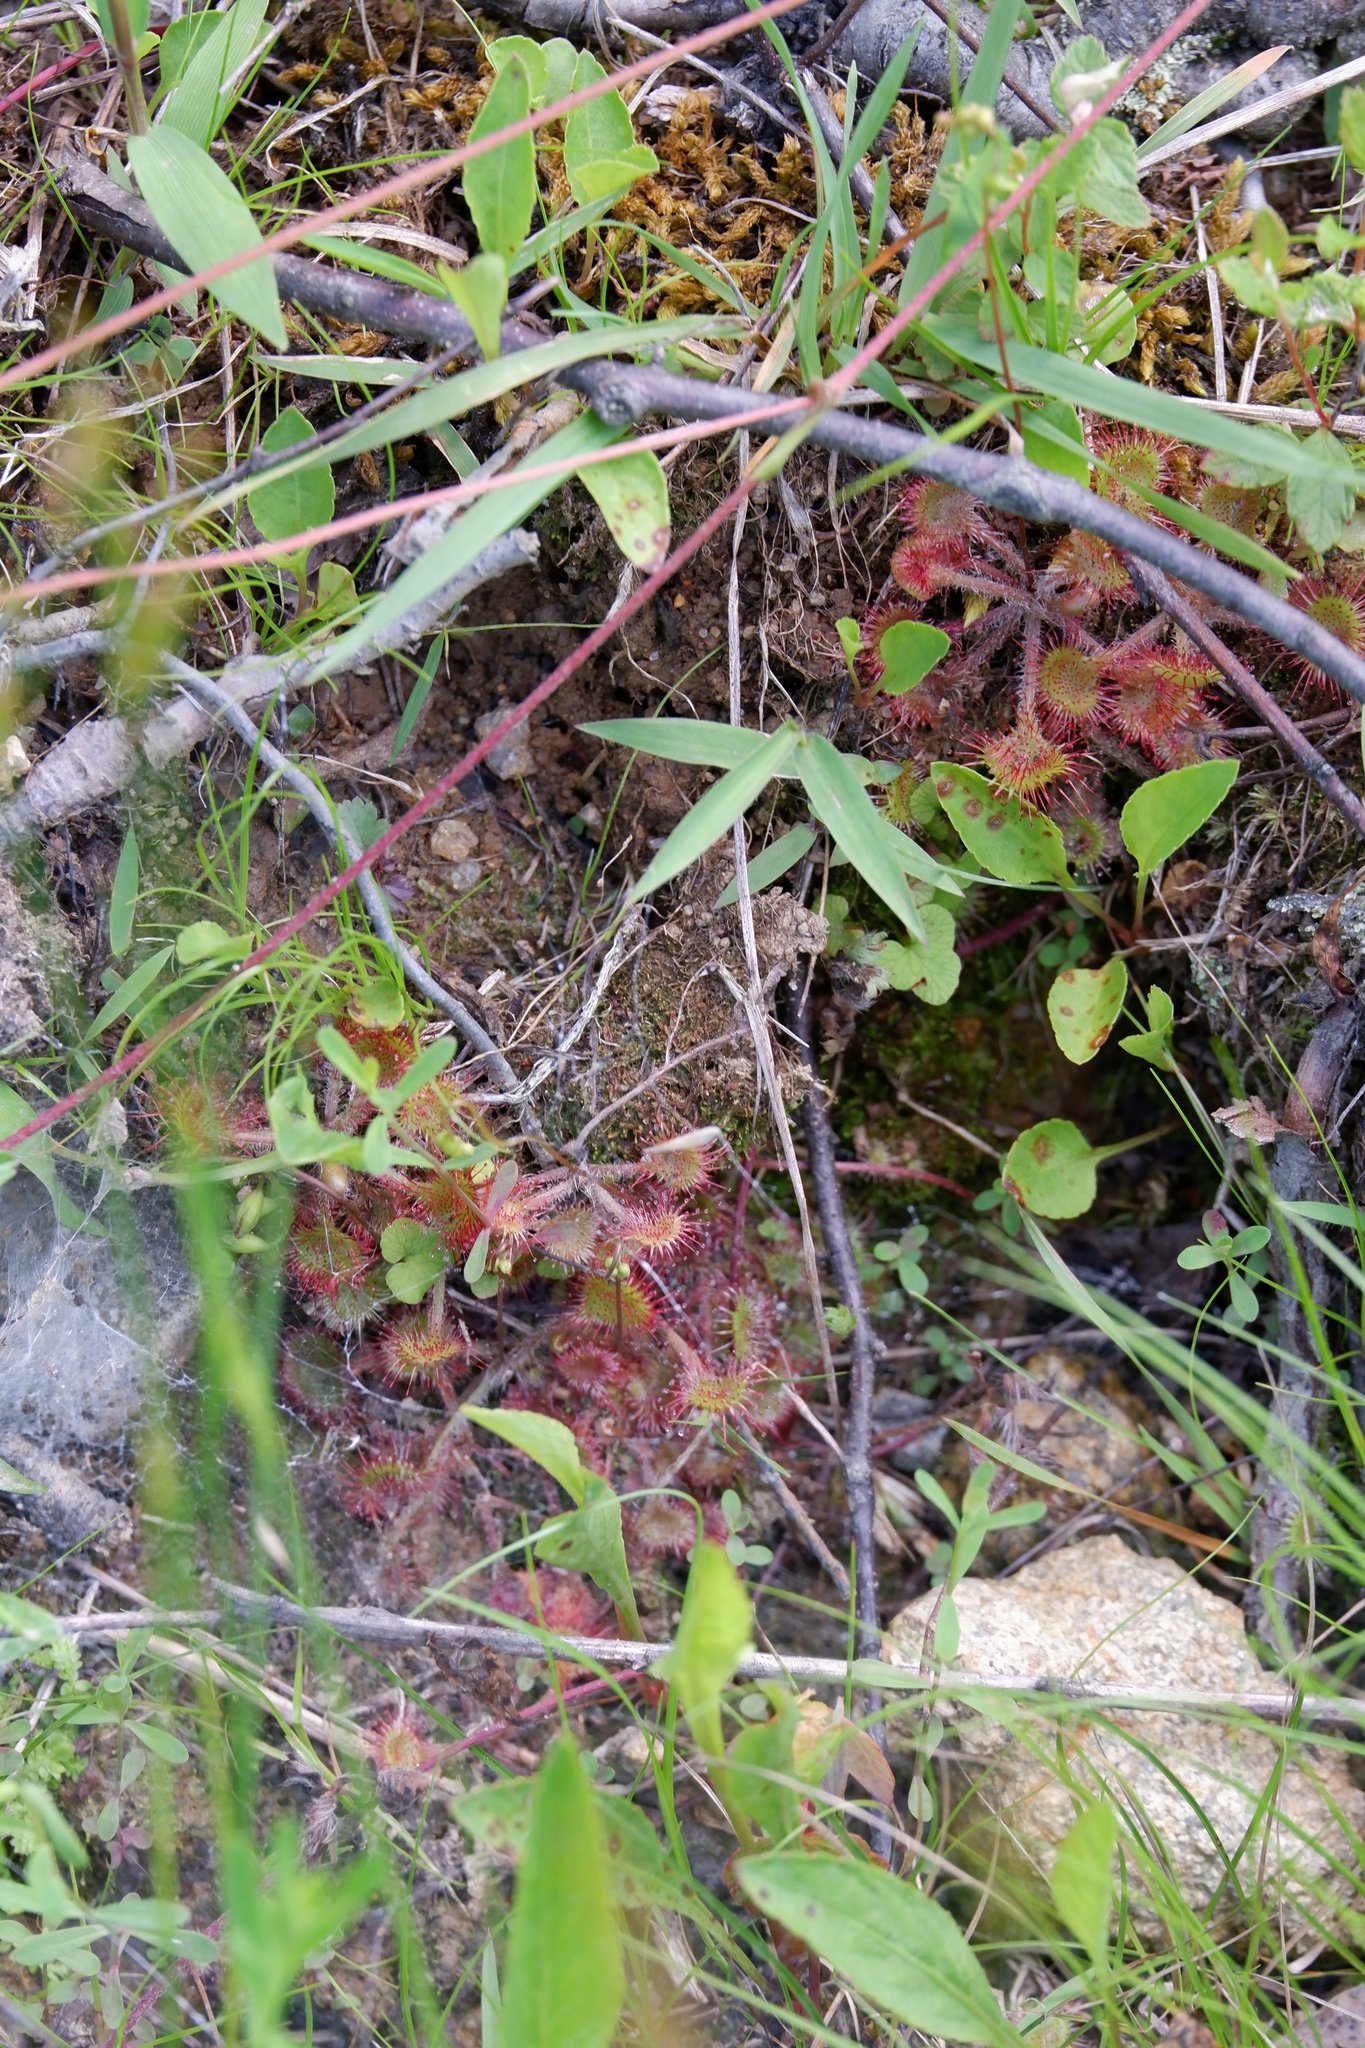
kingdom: Plantae
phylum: Tracheophyta
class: Magnoliopsida
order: Caryophyllales
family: Droseraceae
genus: Drosera
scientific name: Drosera rotundifolia
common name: Round-leaved sundew
